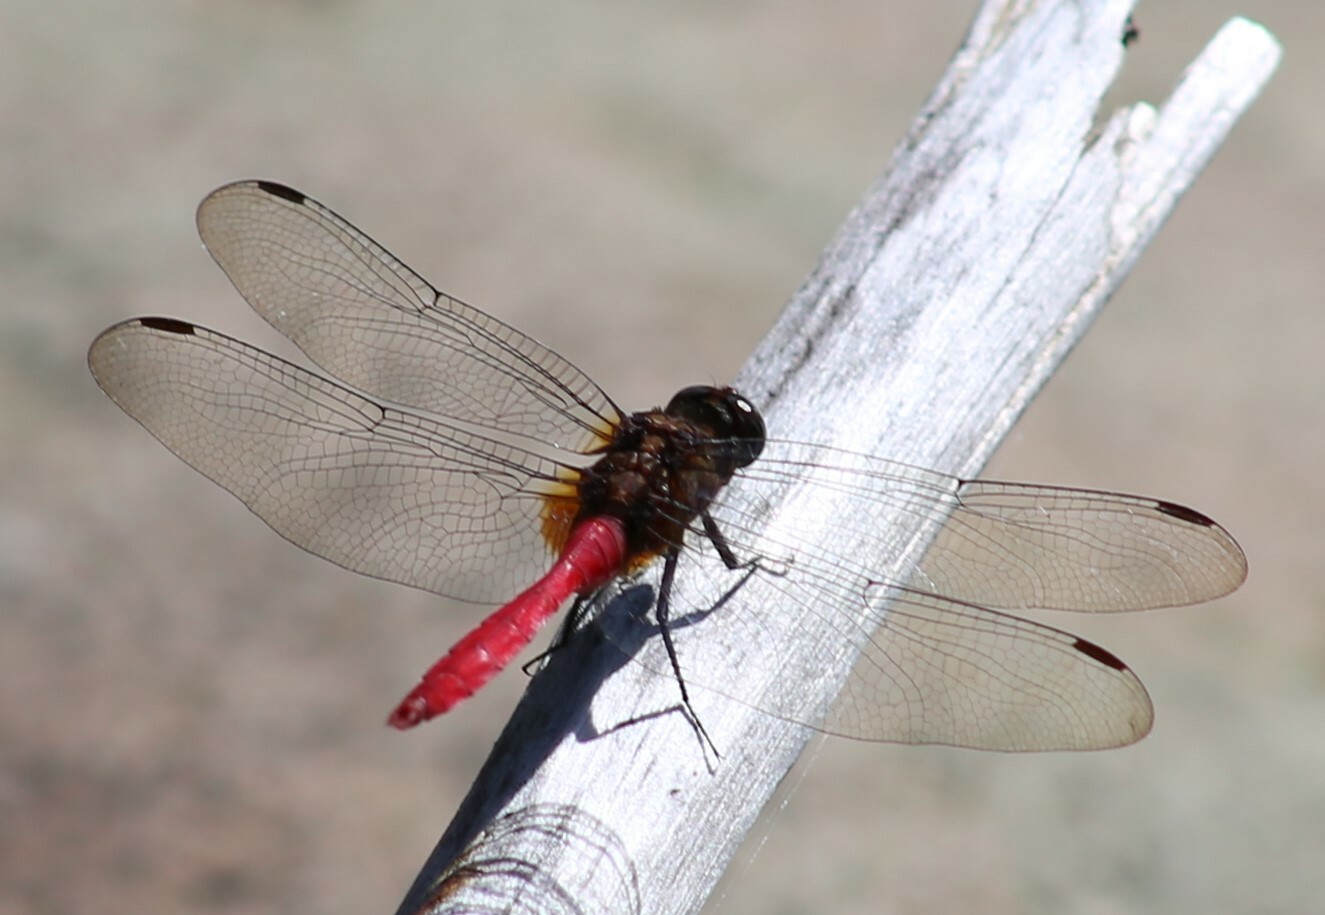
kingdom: Animalia
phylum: Arthropoda
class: Insecta
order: Odonata
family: Libellulidae
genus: Orthetrum
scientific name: Orthetrum villosovittatum
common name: Firery skimmer
